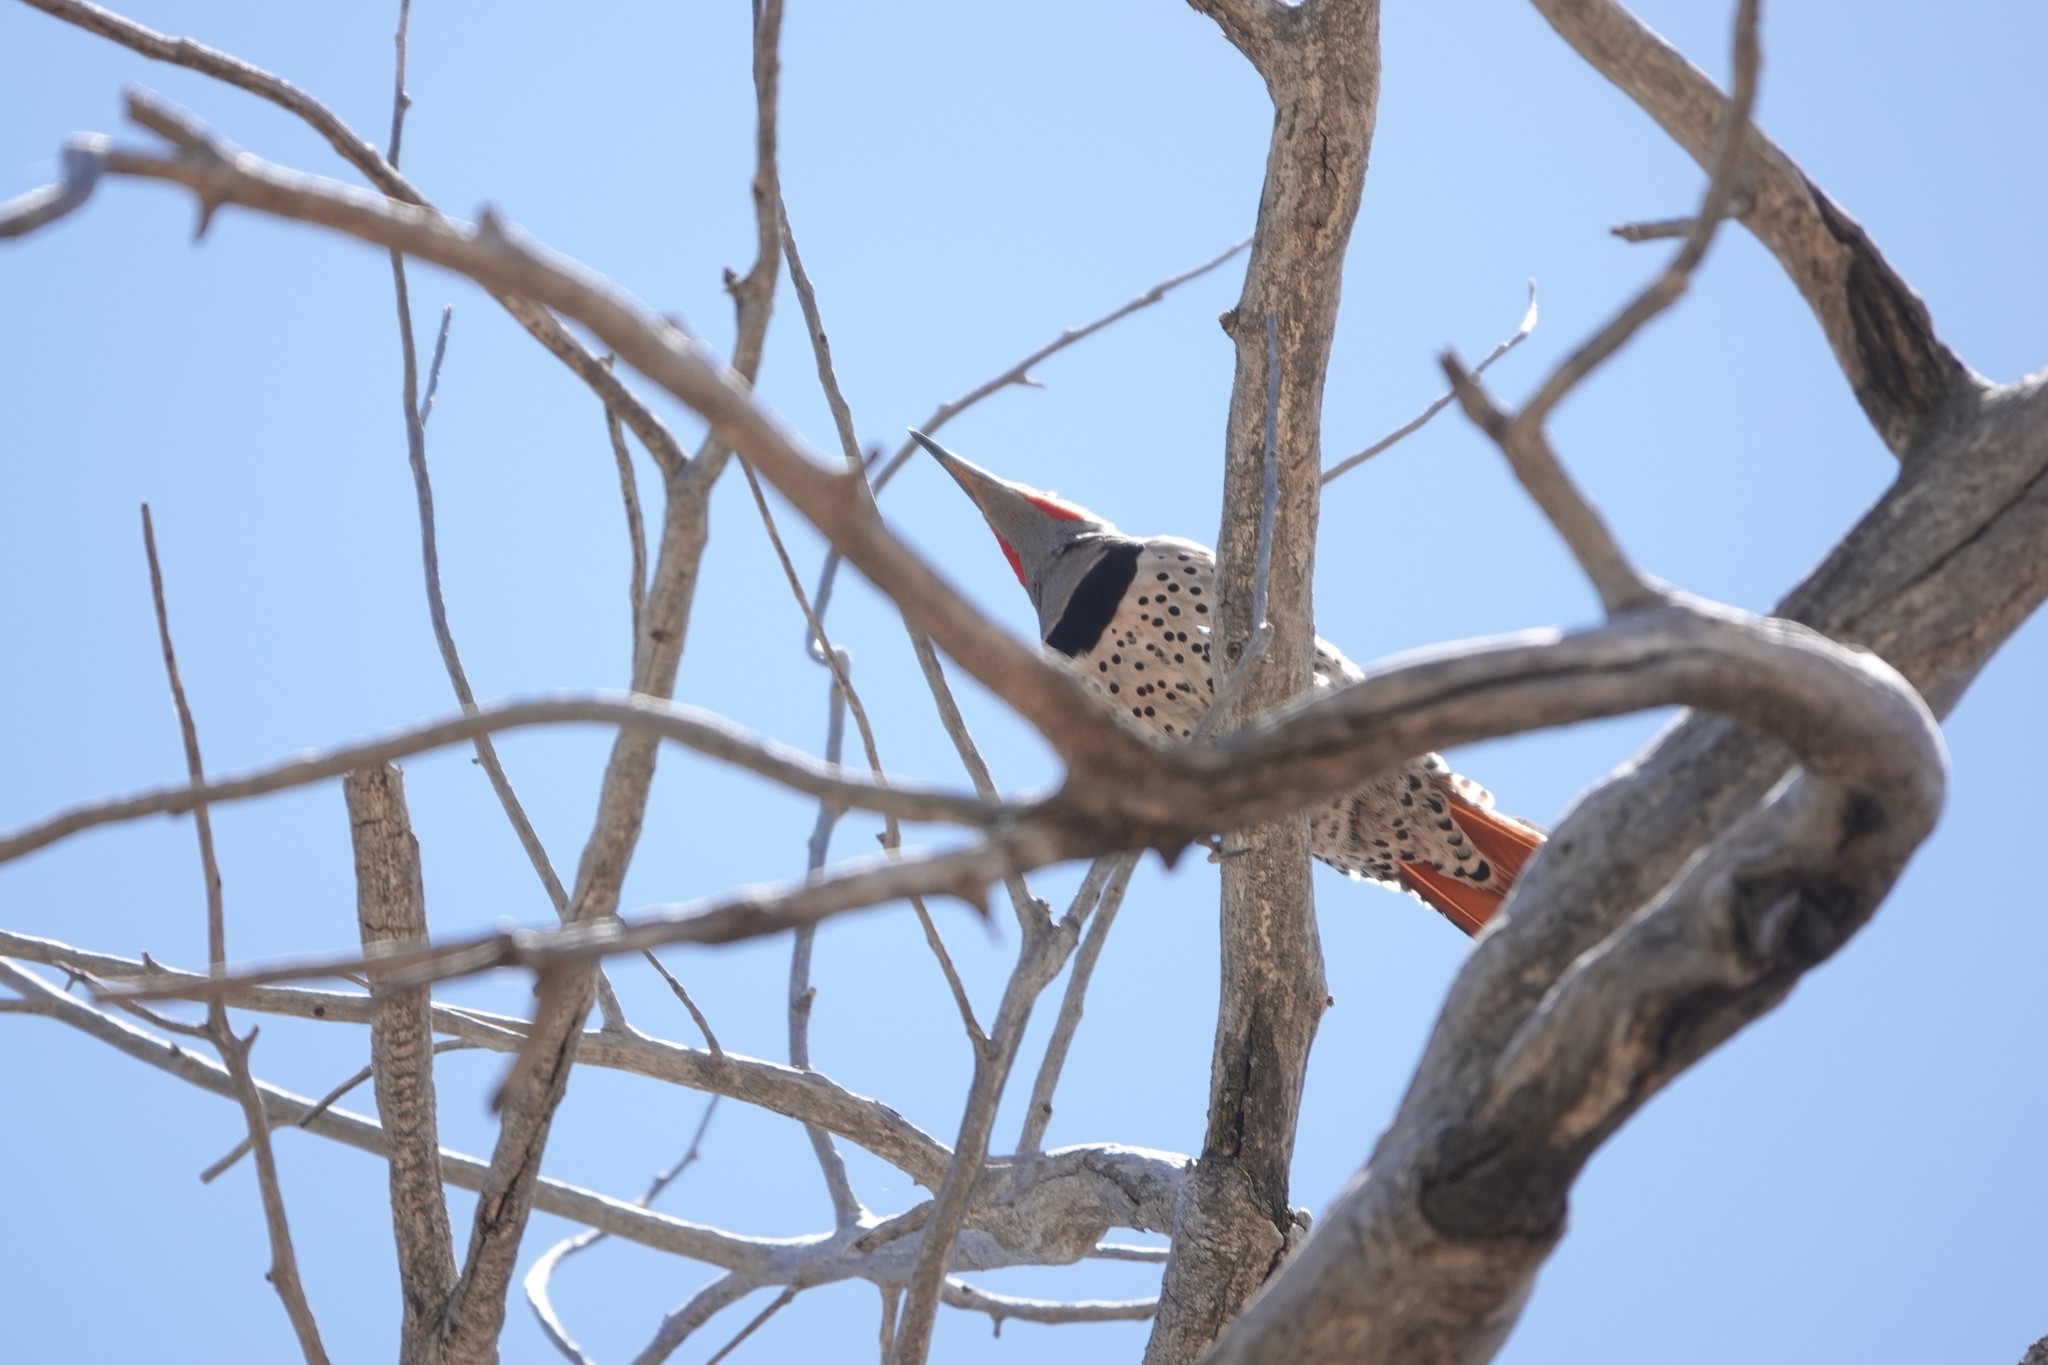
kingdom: Animalia
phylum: Chordata
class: Aves
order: Piciformes
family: Picidae
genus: Colaptes
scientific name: Colaptes auratus
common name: Northern flicker
